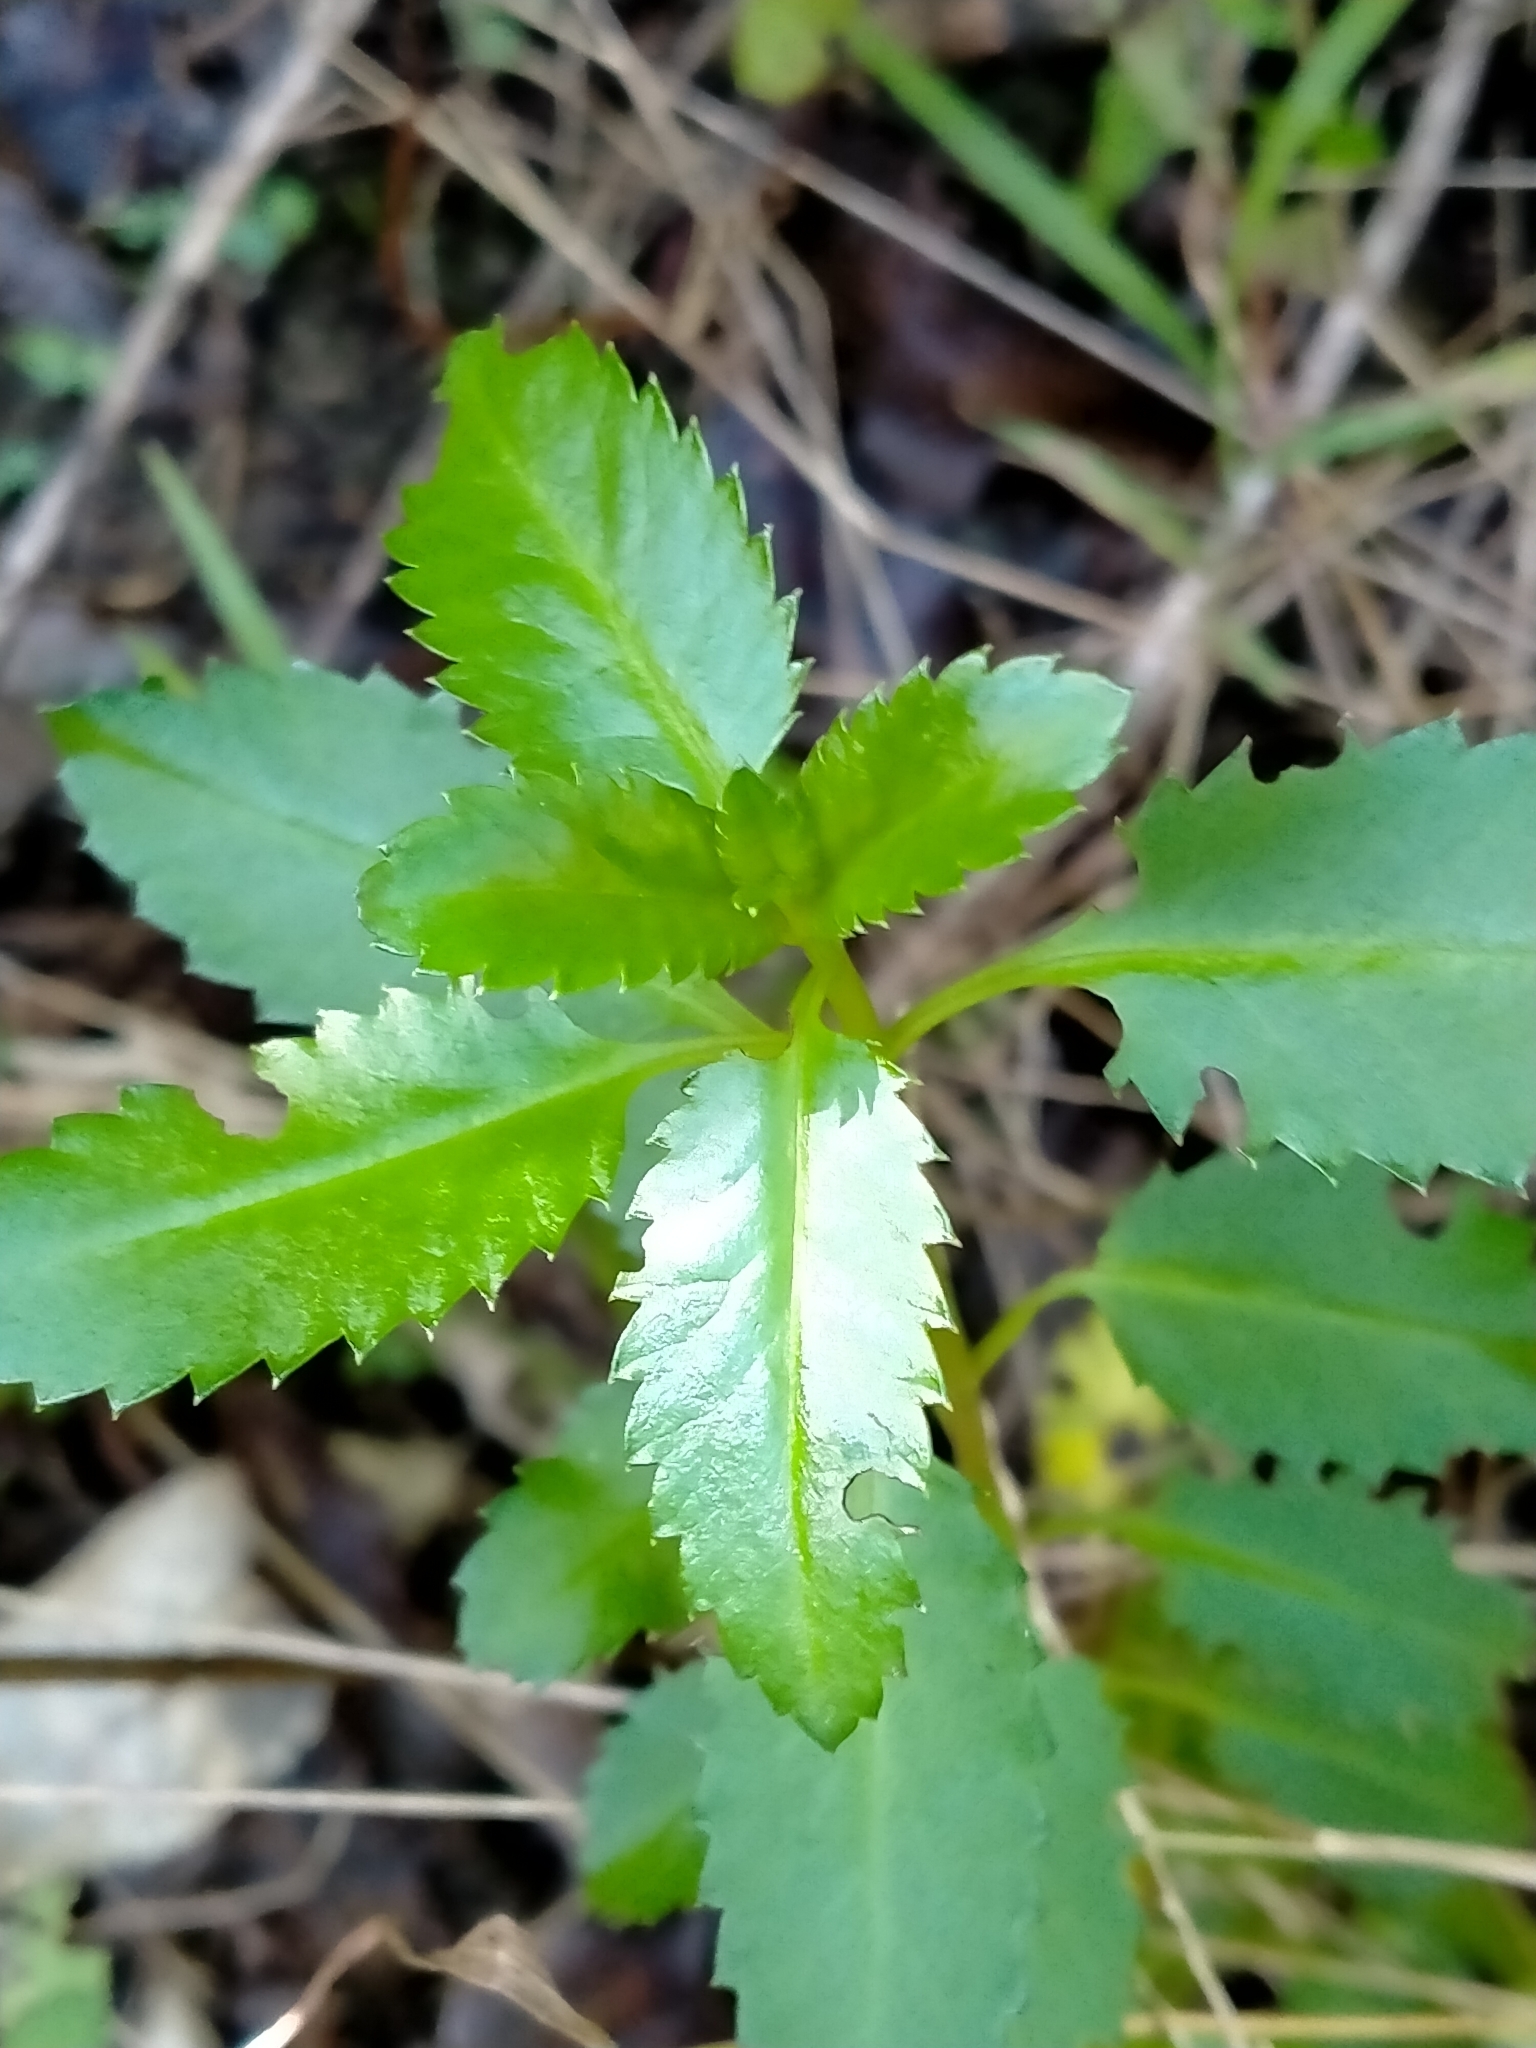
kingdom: Plantae
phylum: Tracheophyta
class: Magnoliopsida
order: Saxifragales
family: Haloragaceae
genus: Haloragis
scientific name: Haloragis erecta
